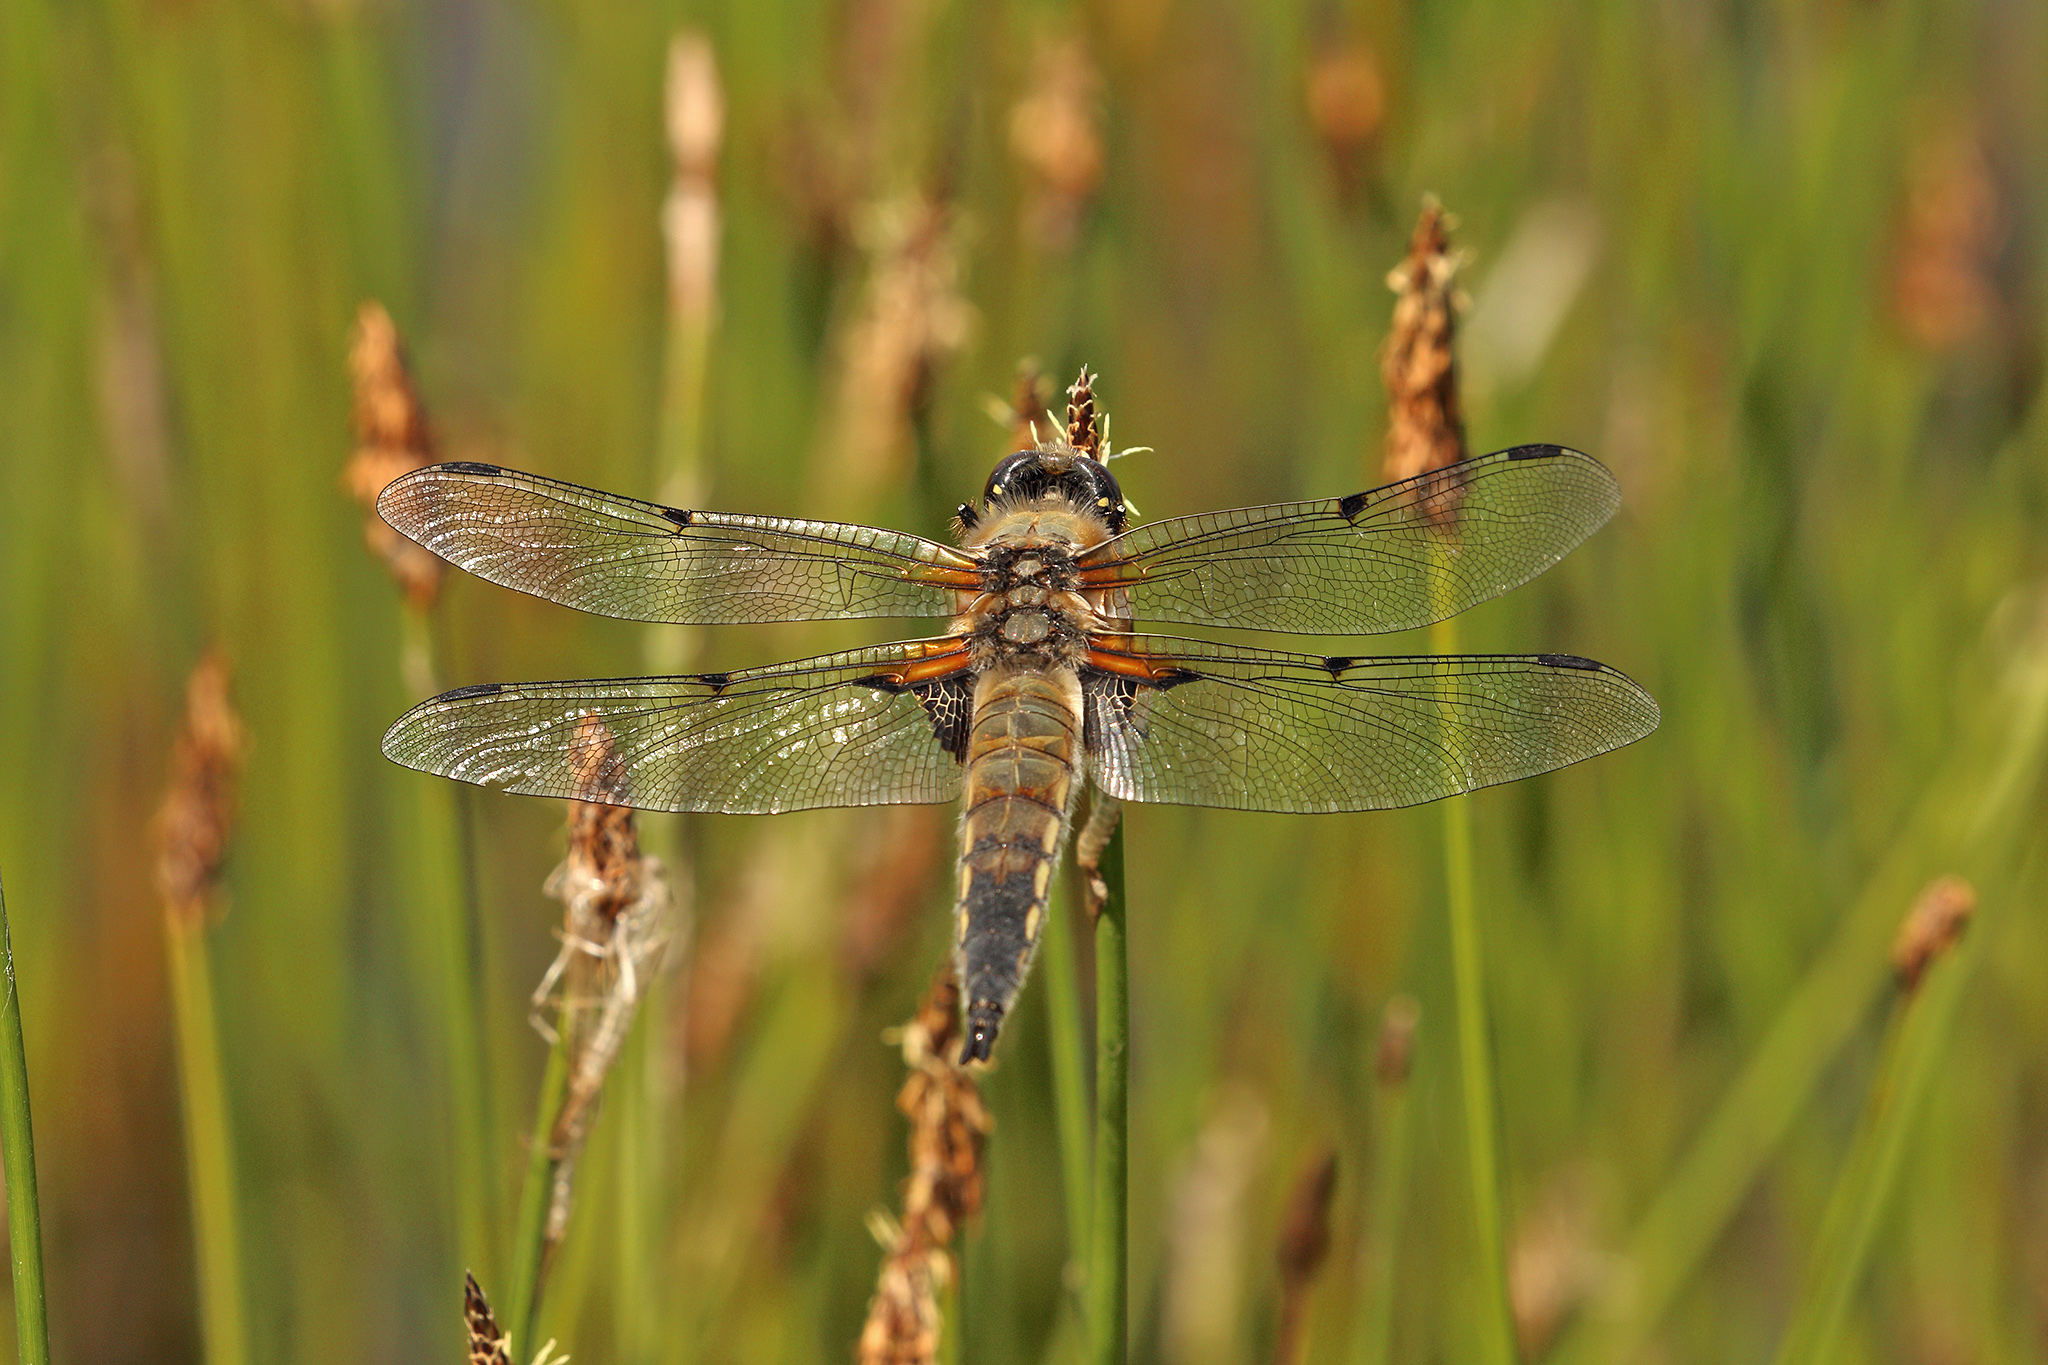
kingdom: Animalia
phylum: Arthropoda
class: Insecta
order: Odonata
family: Libellulidae
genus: Libellula
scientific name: Libellula quadrimaculata
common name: Four-spotted chaser
